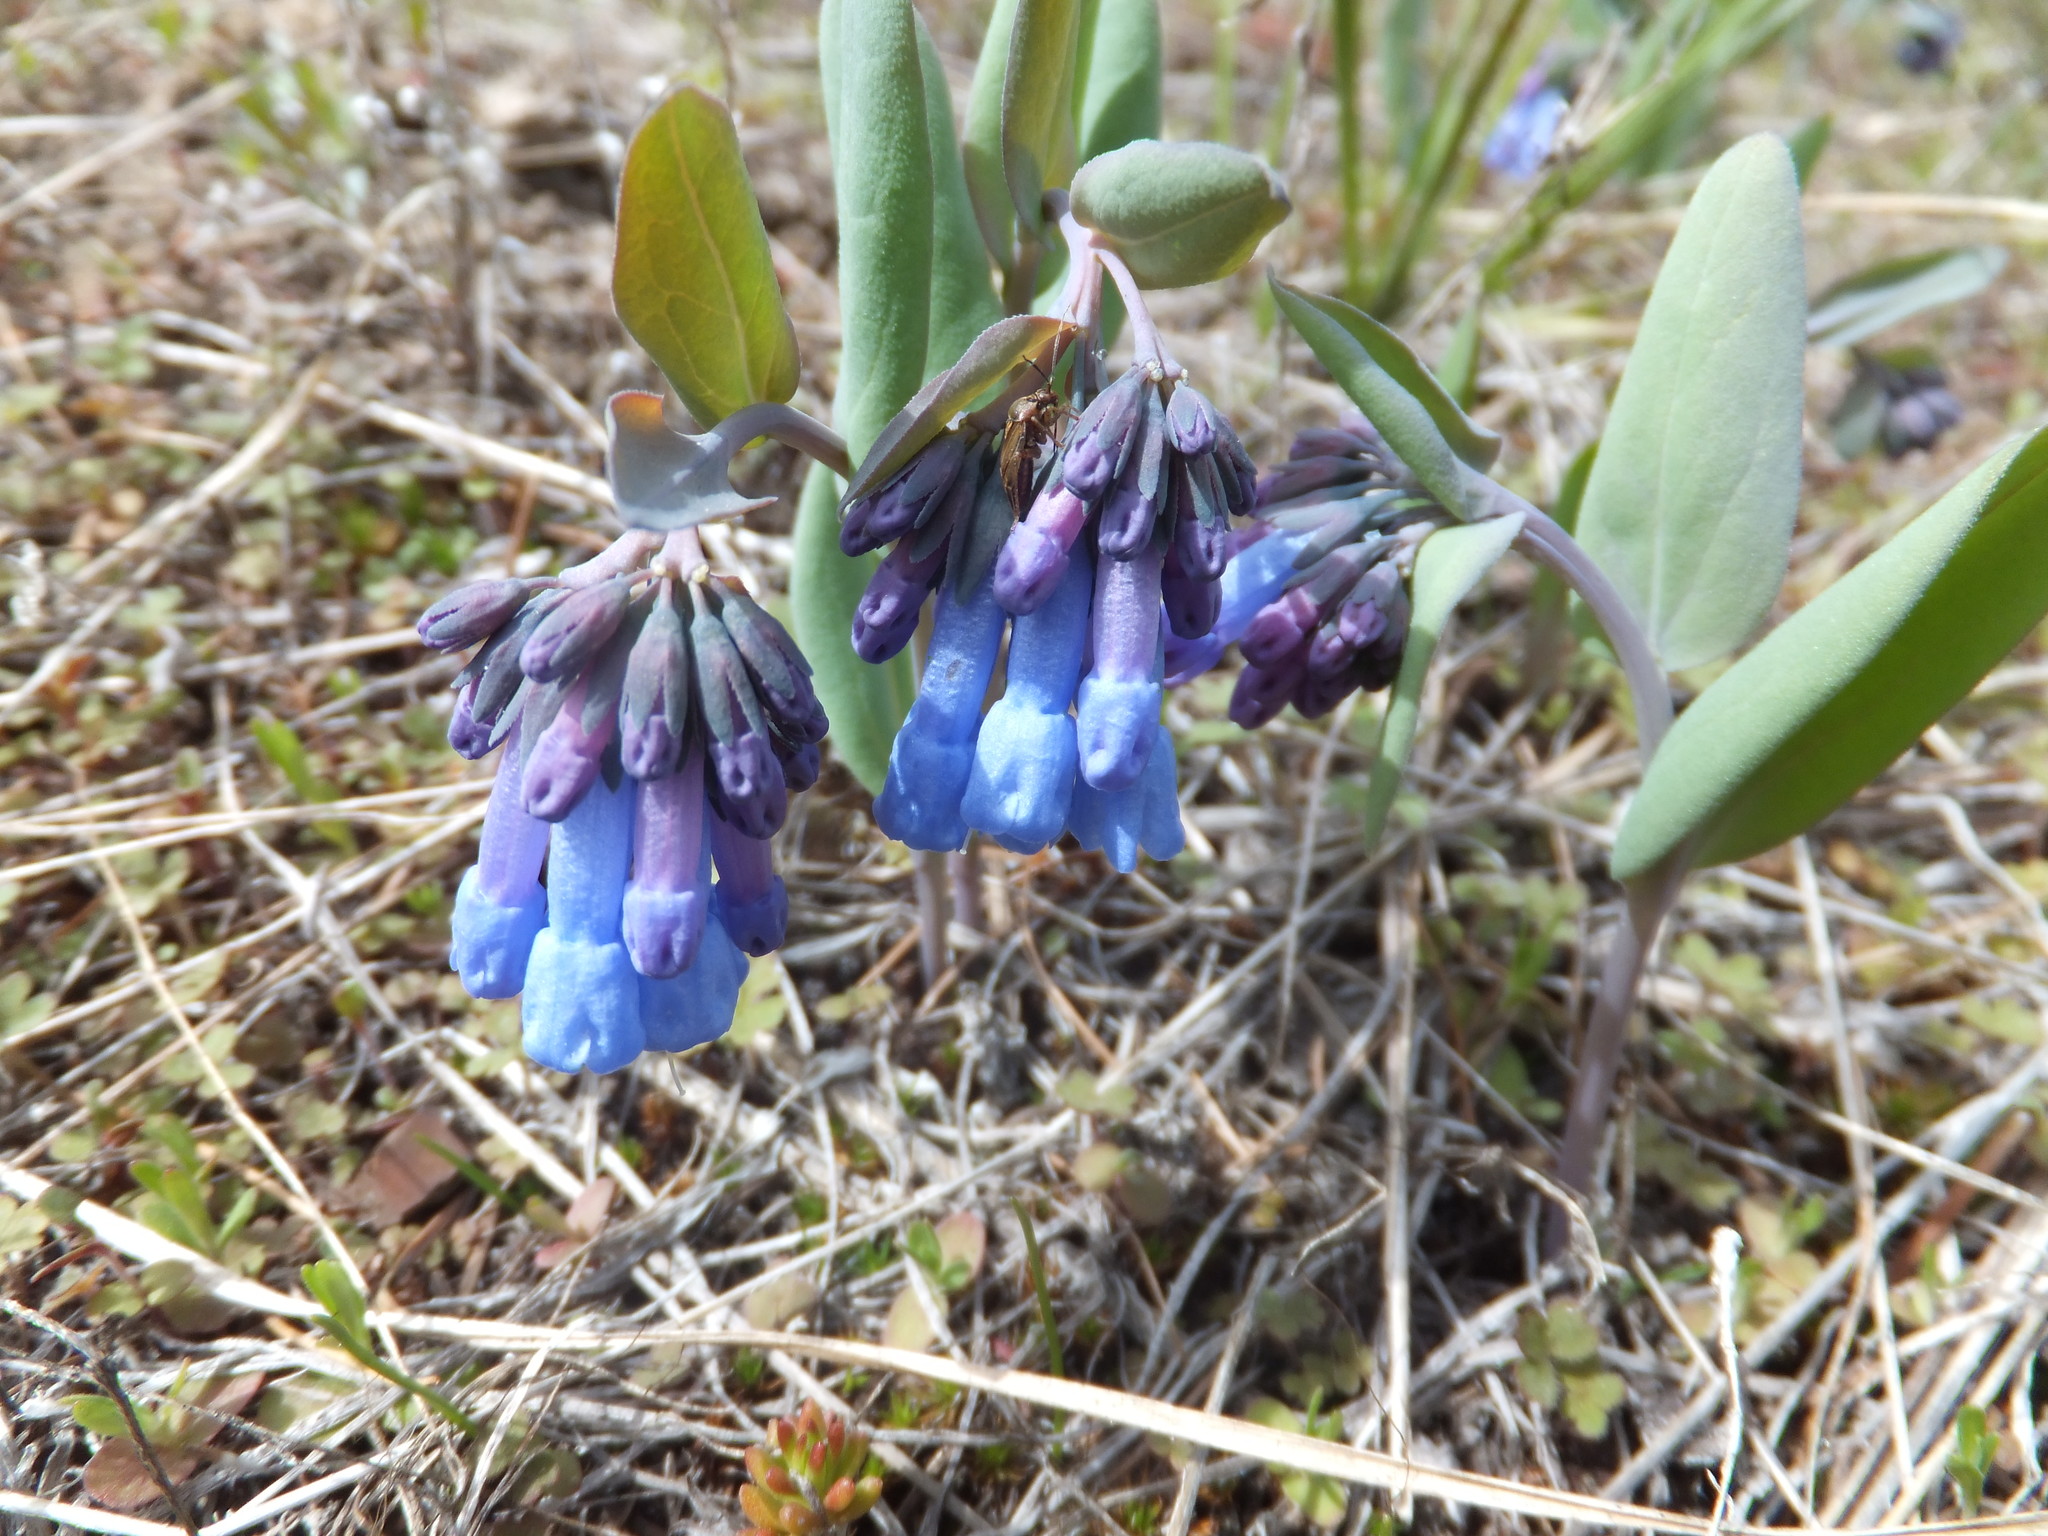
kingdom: Plantae
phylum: Tracheophyta
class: Magnoliopsida
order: Boraginales
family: Boraginaceae
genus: Mertensia
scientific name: Mertensia longiflora
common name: Large-flowered bluebells
